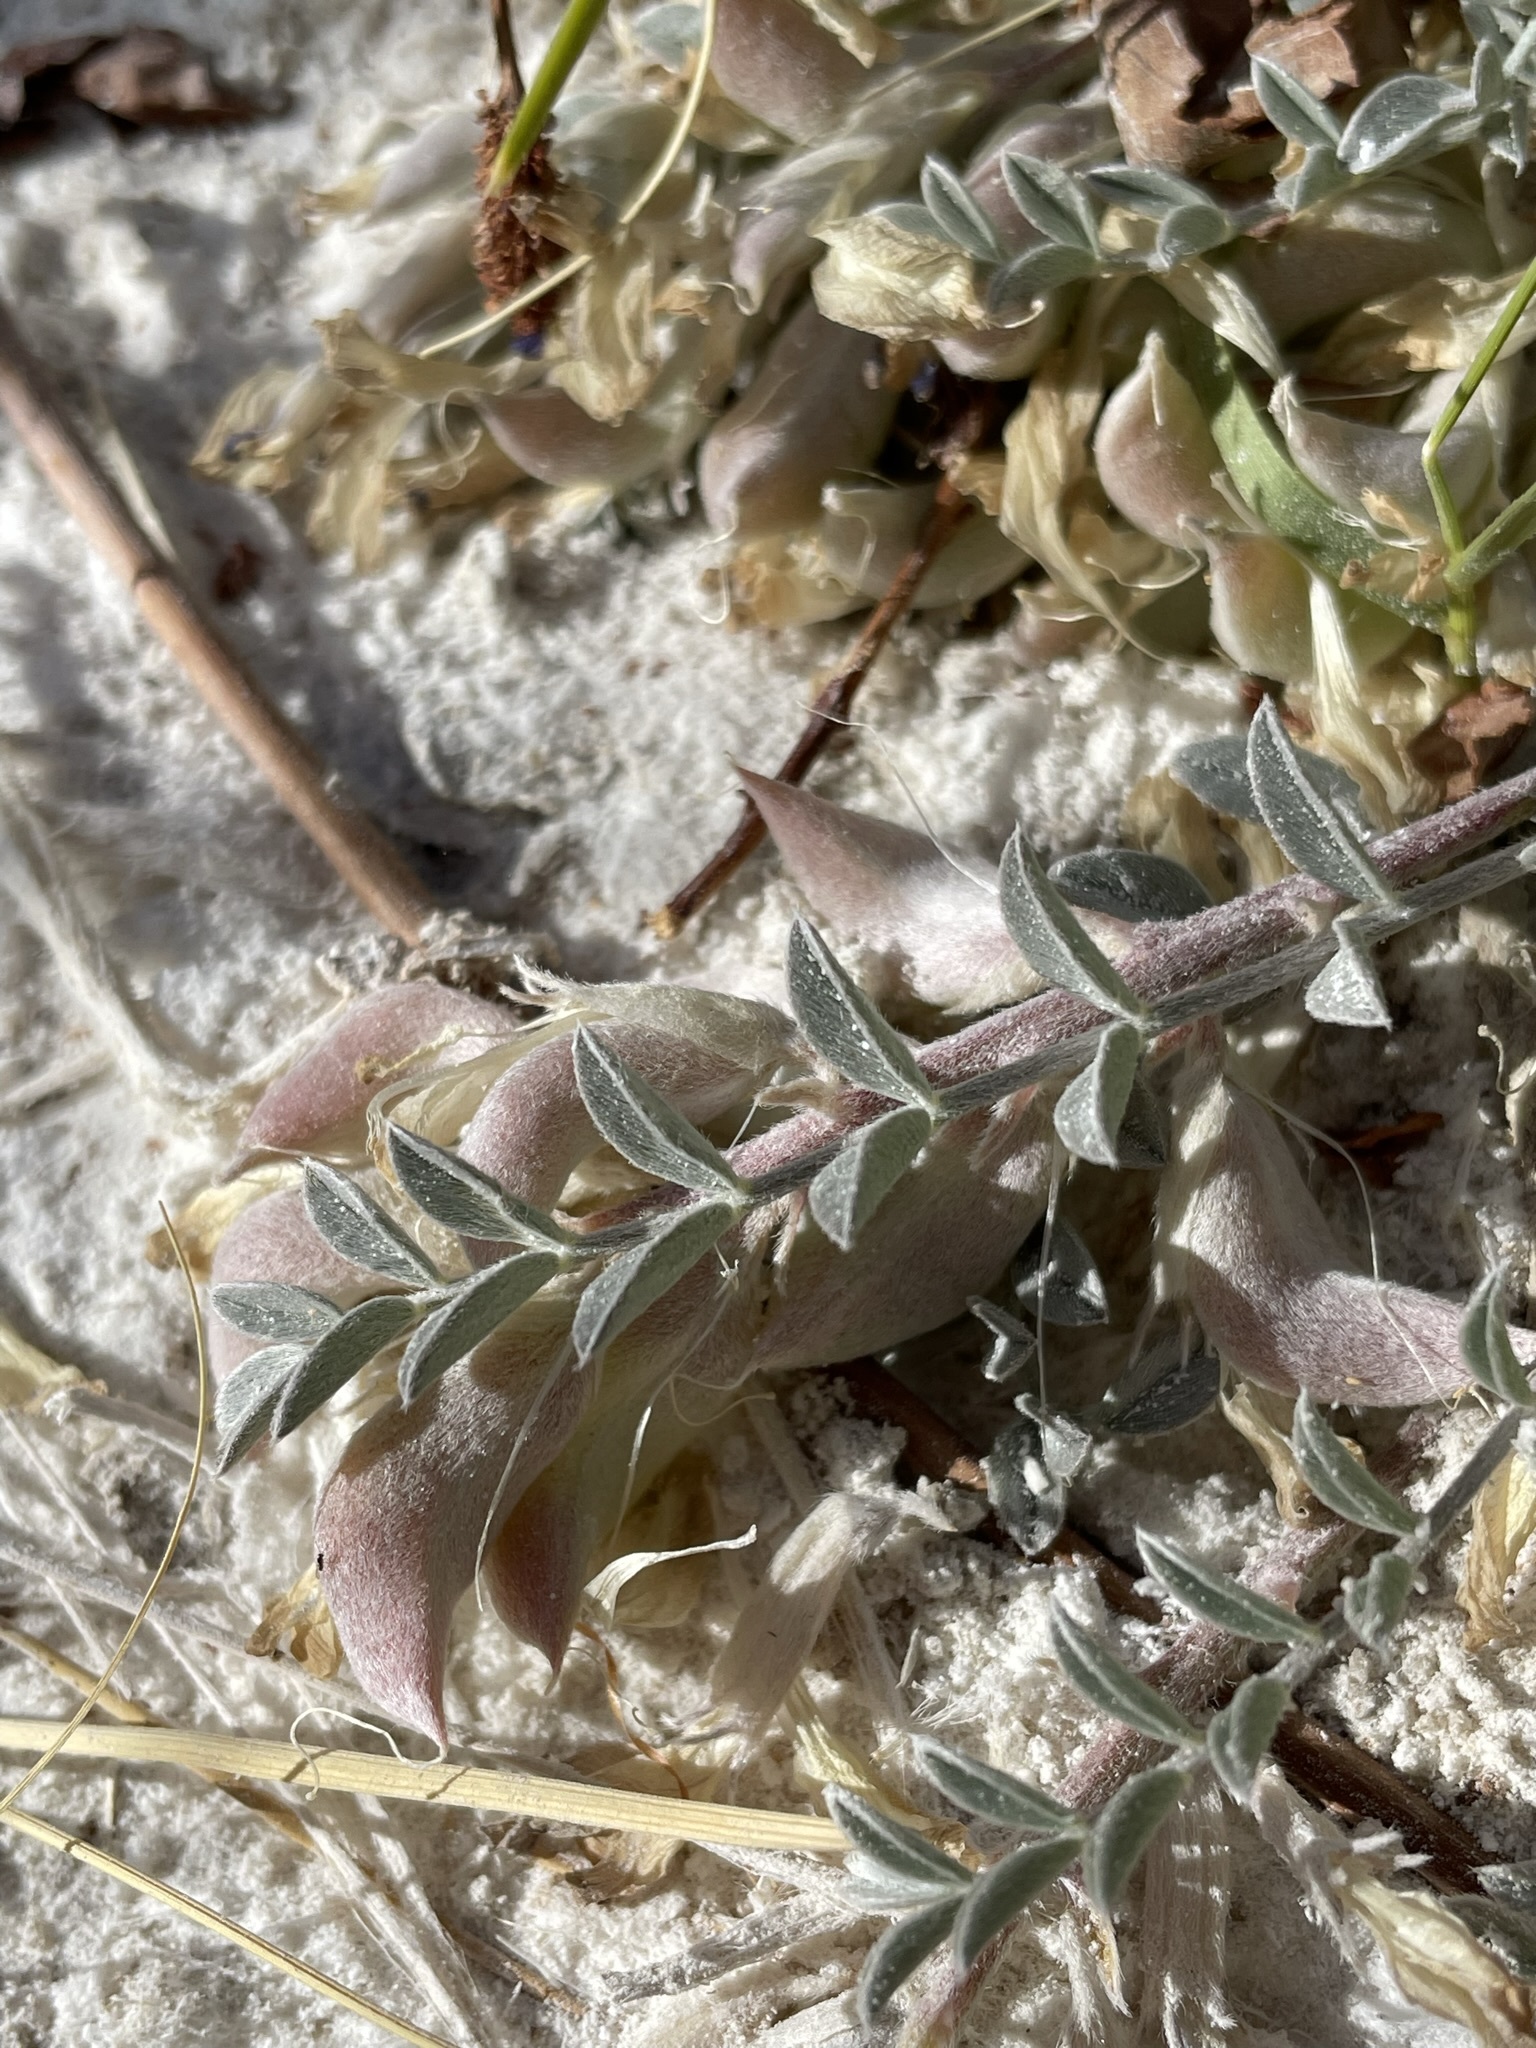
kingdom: Plantae
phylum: Tracheophyta
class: Magnoliopsida
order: Fabales
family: Fabaceae
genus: Astragalus
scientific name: Astragalus argophyllus
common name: Silverleaf milk-vetch
